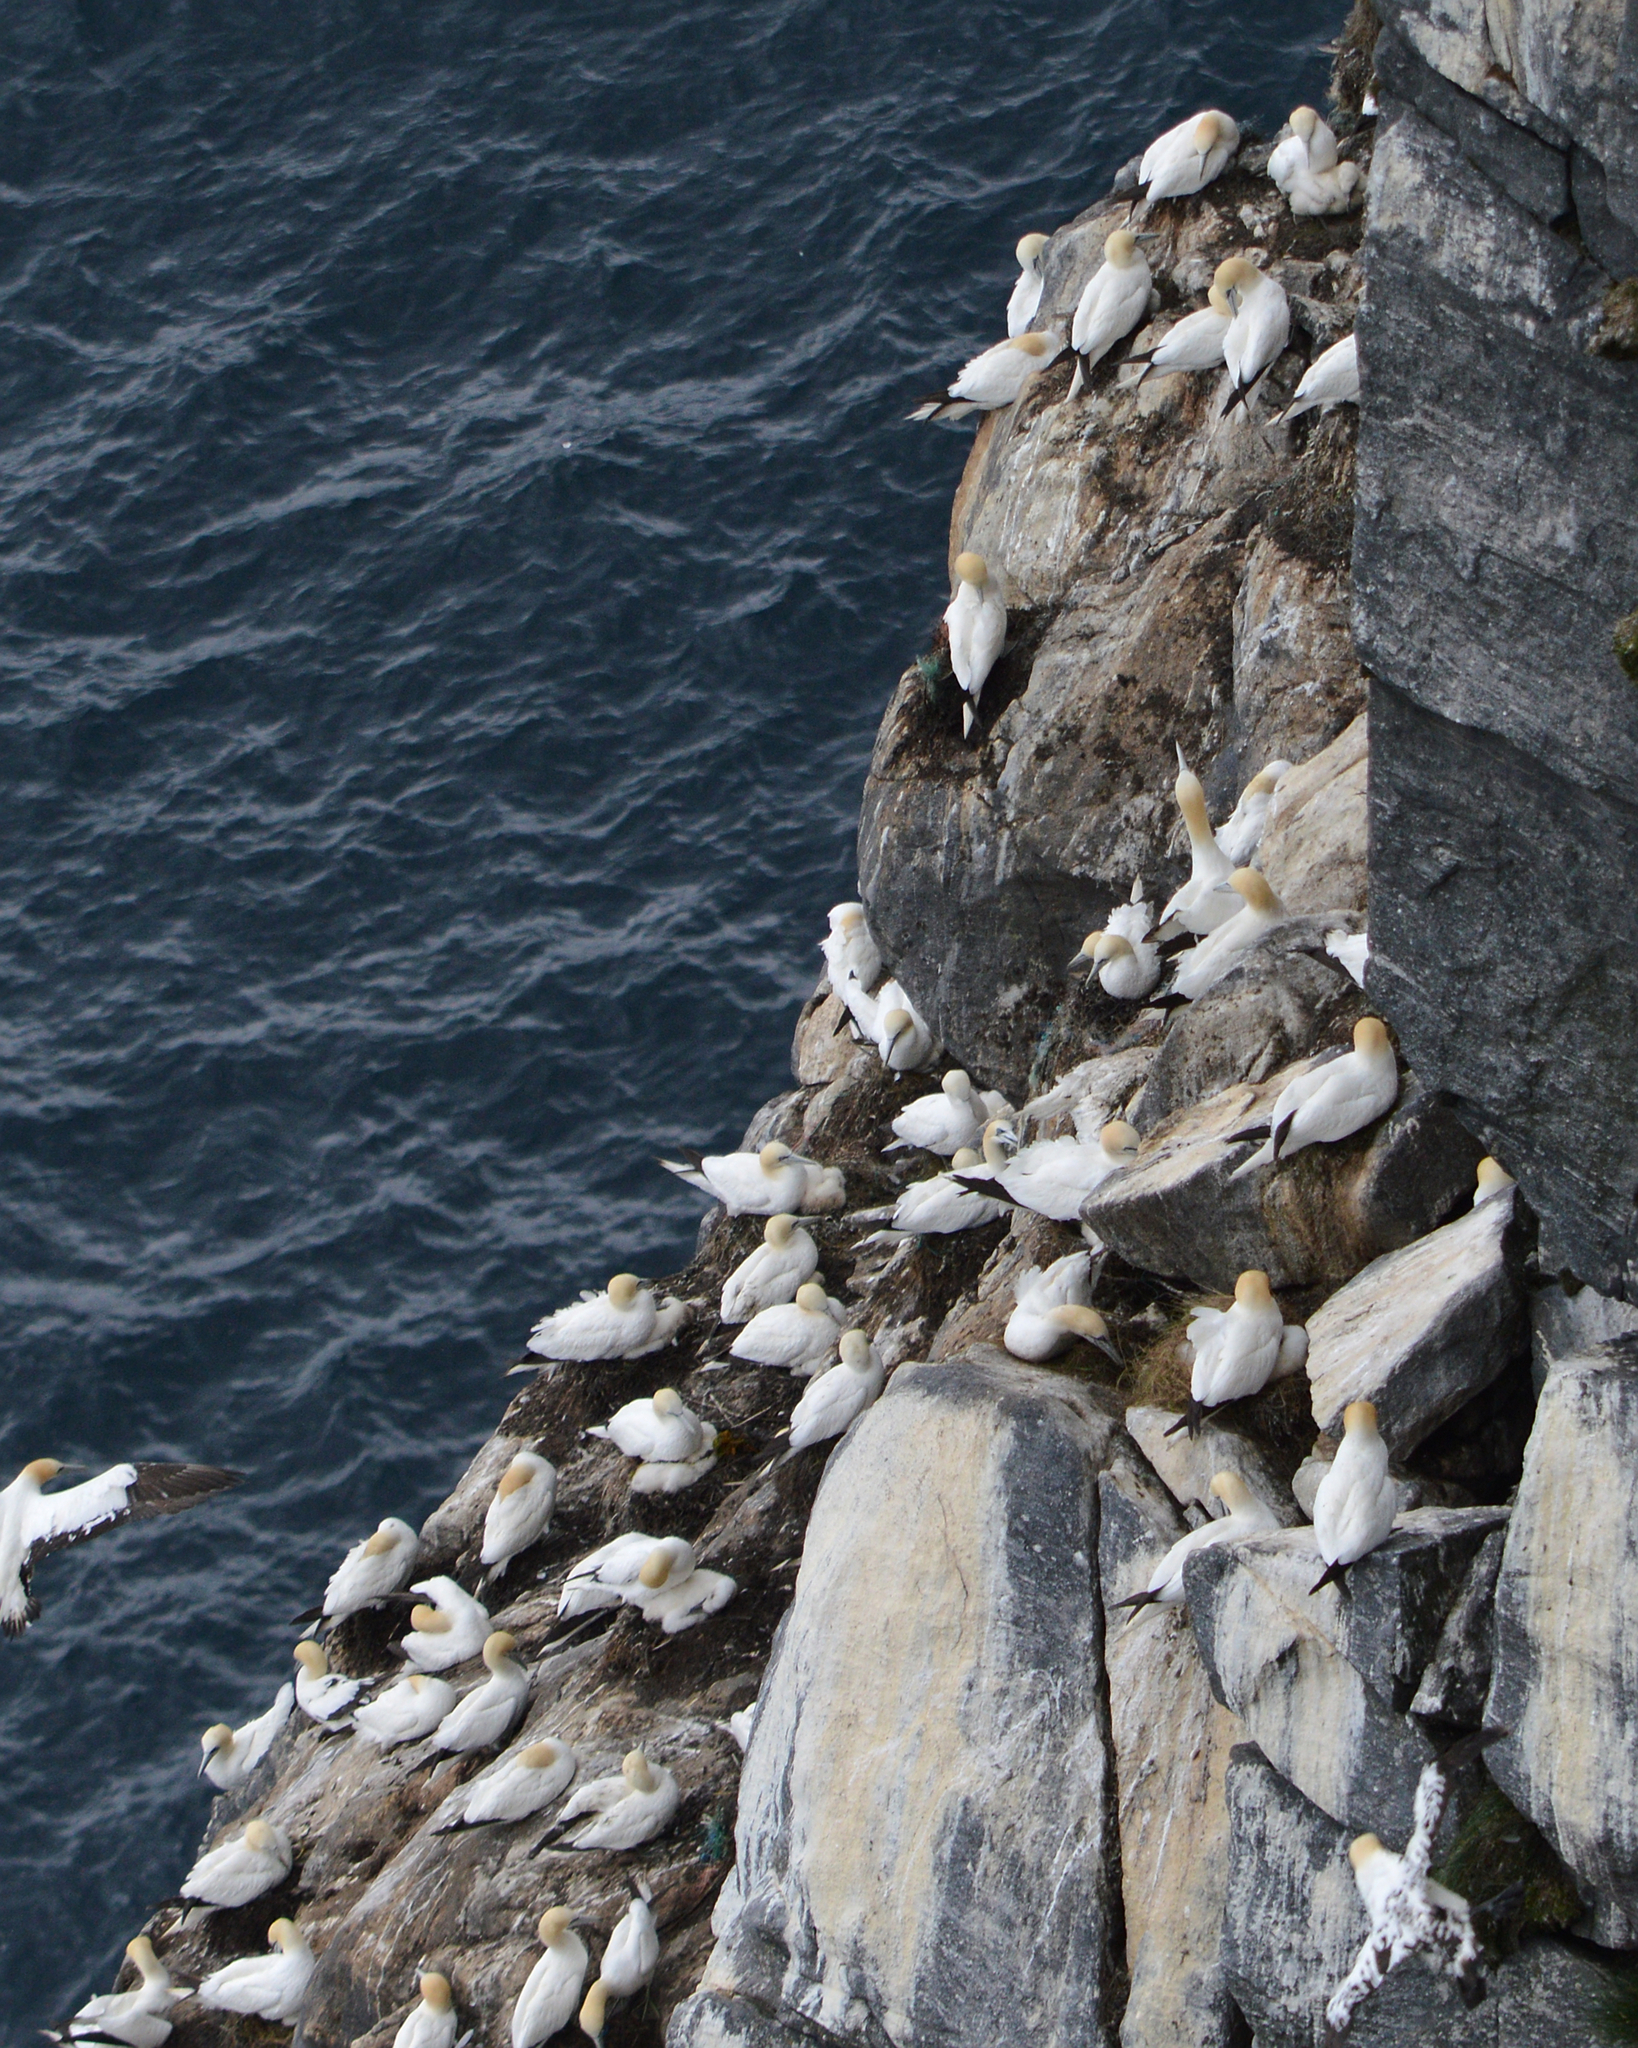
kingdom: Animalia
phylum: Chordata
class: Aves
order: Suliformes
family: Sulidae
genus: Morus
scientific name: Morus bassanus
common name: Northern gannet
